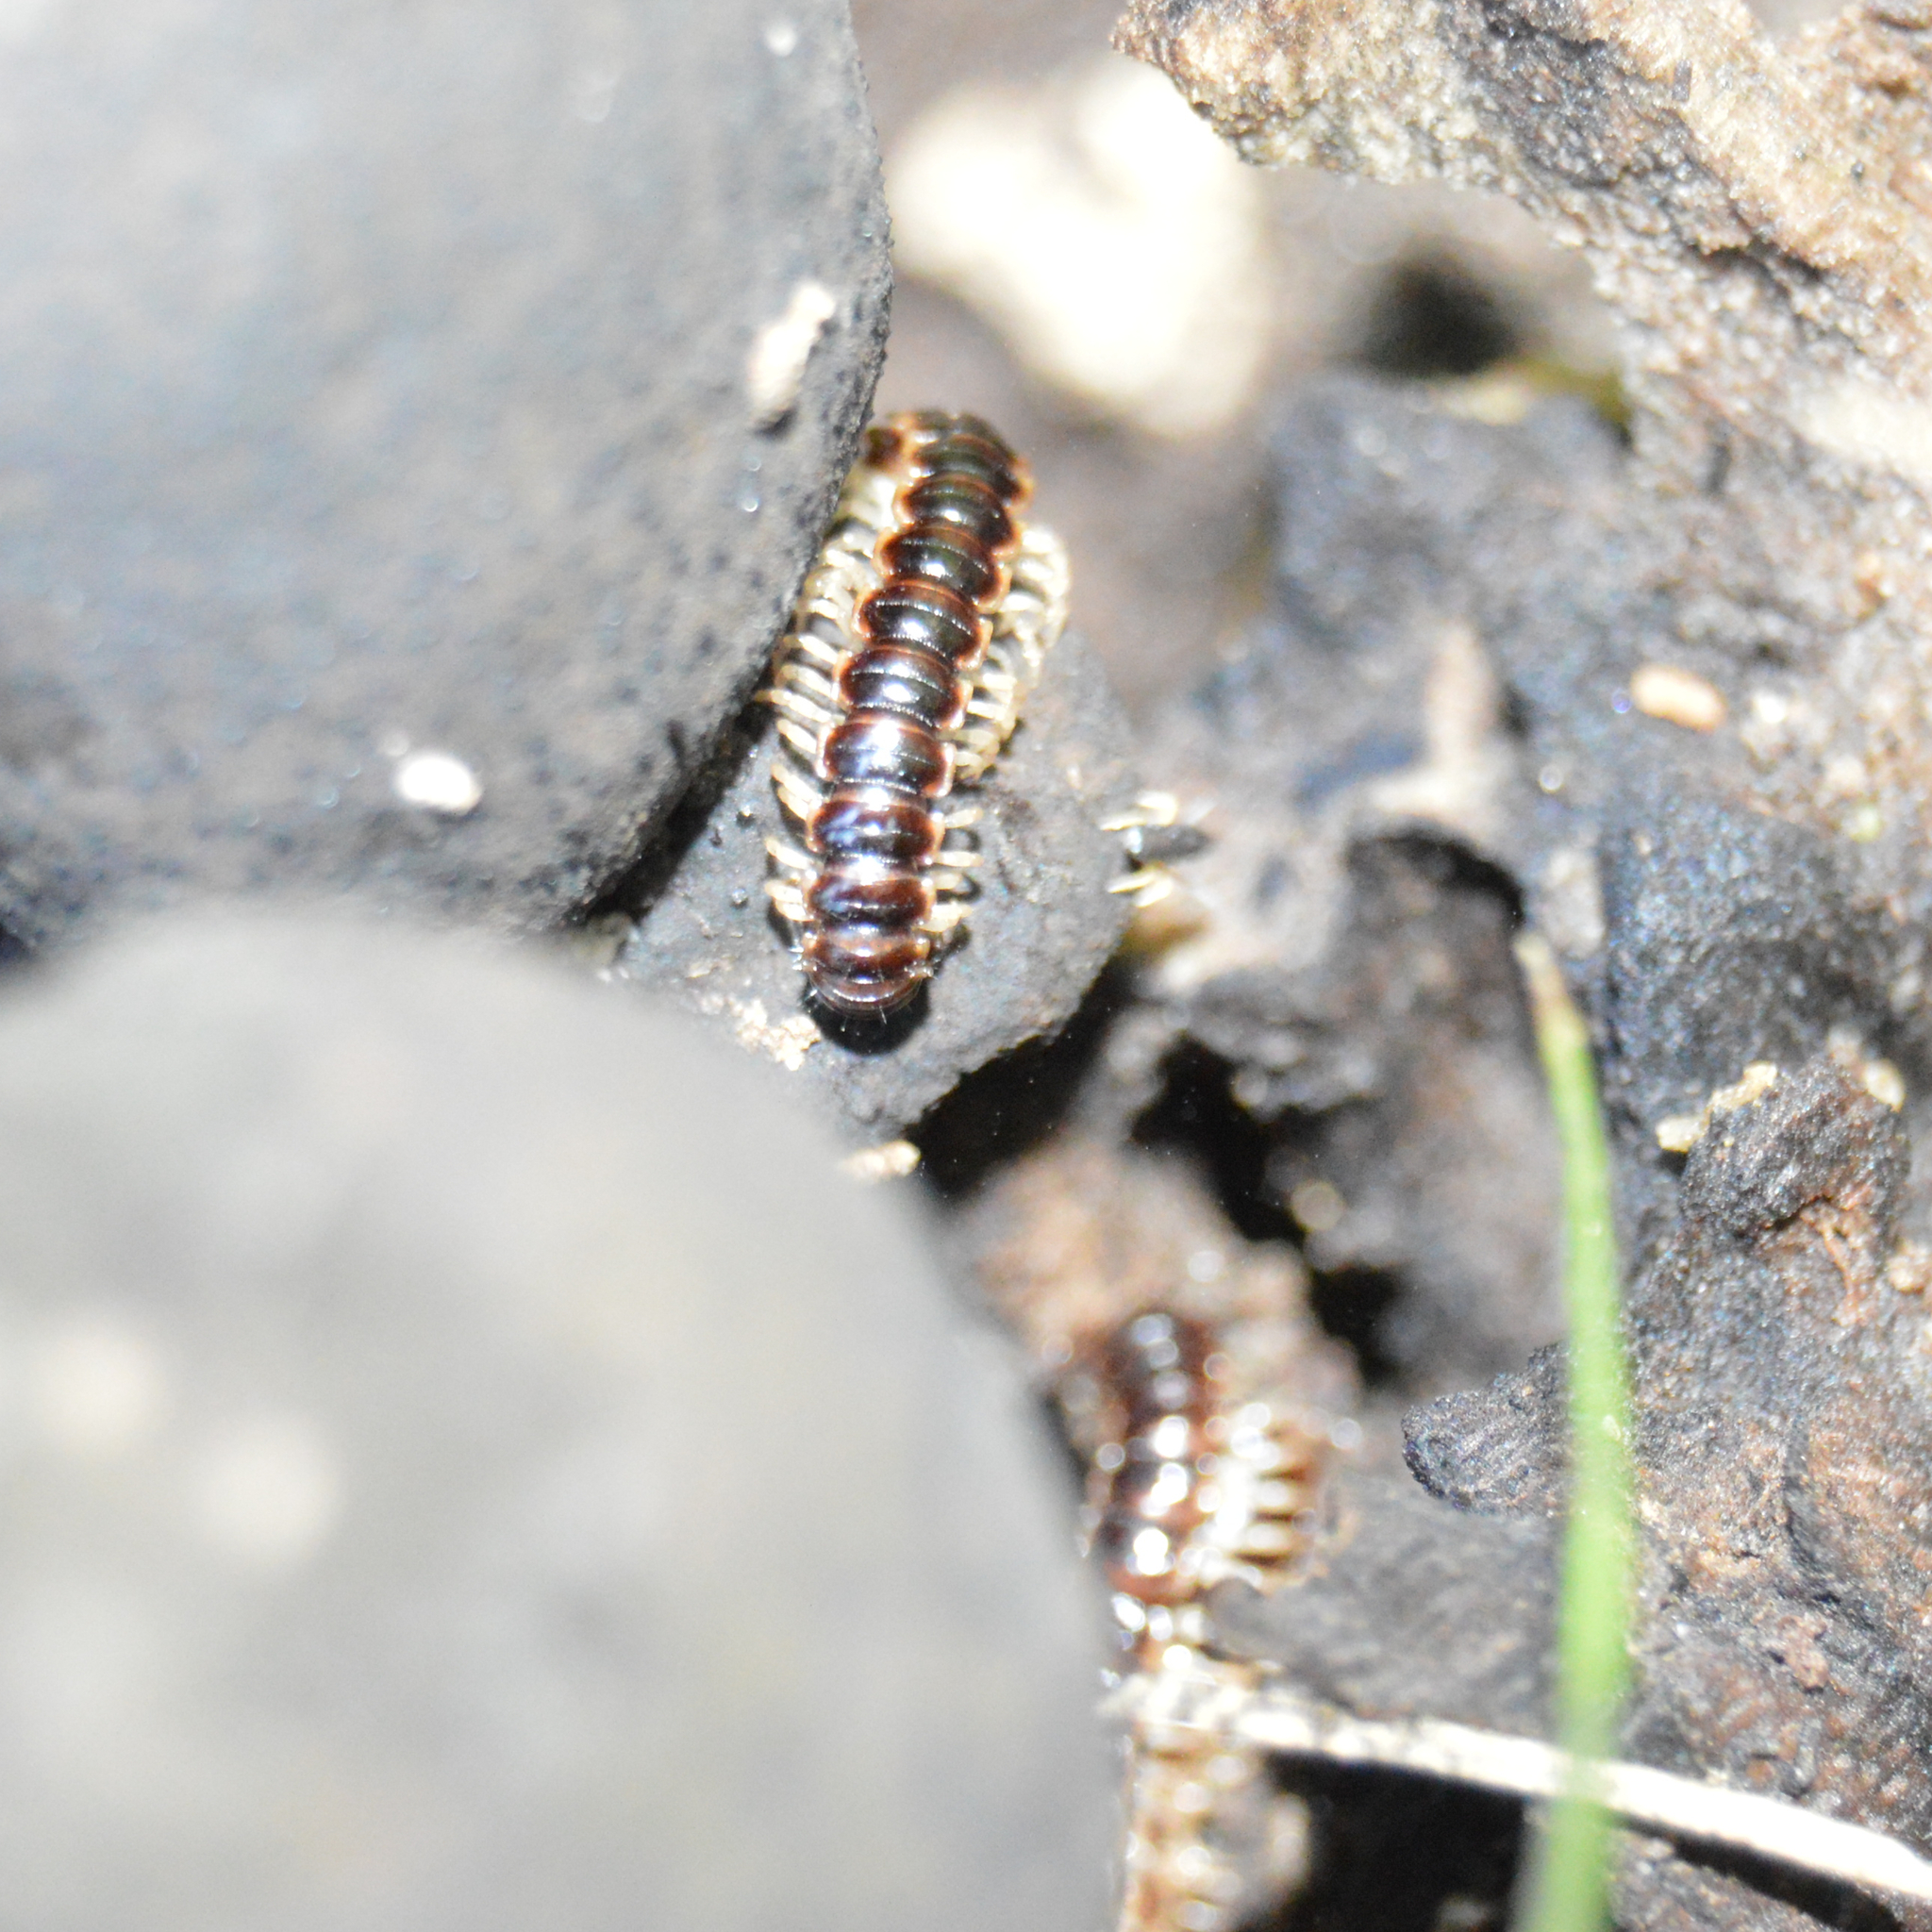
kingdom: Animalia
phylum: Arthropoda
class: Diplopoda
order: Polydesmida
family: Paradoxosomatidae
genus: Oxidus
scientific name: Oxidus gracilis
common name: Greenhouse millipede
